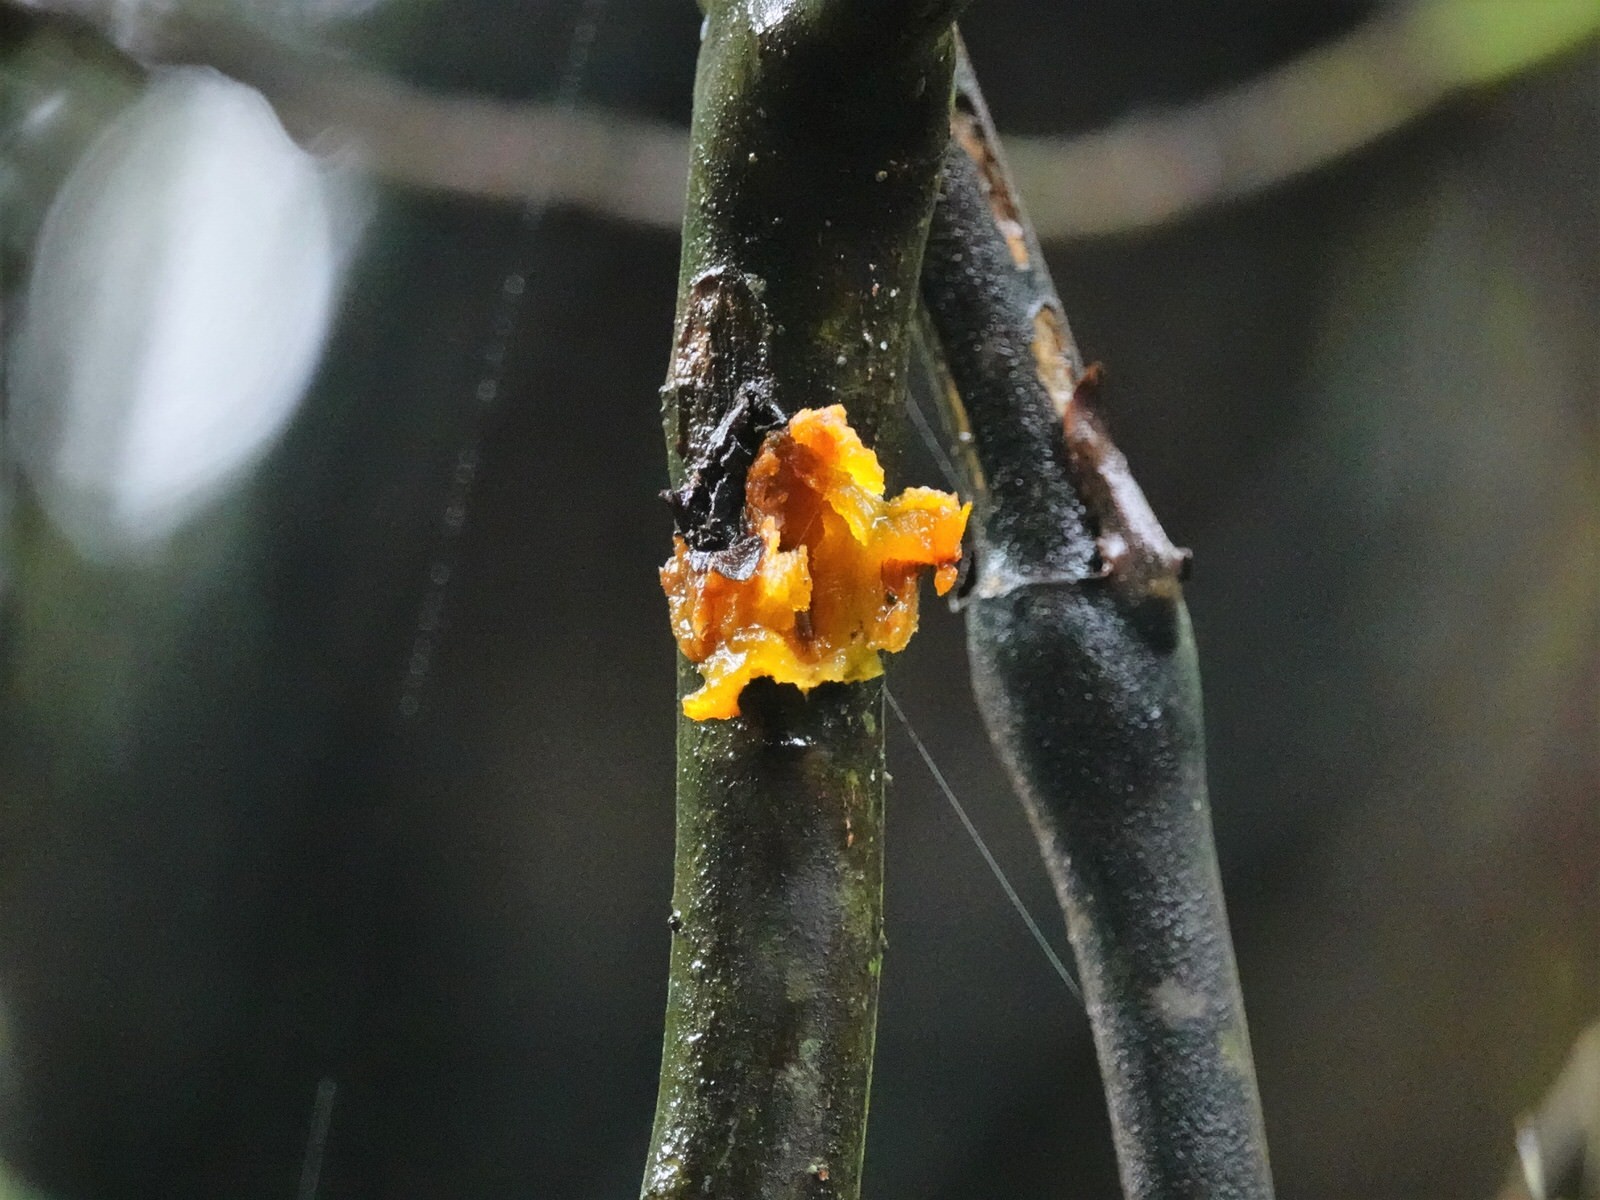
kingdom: Plantae
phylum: Tracheophyta
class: Magnoliopsida
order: Gentianales
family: Rubiaceae
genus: Coprosma
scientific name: Coprosma autumnalis
